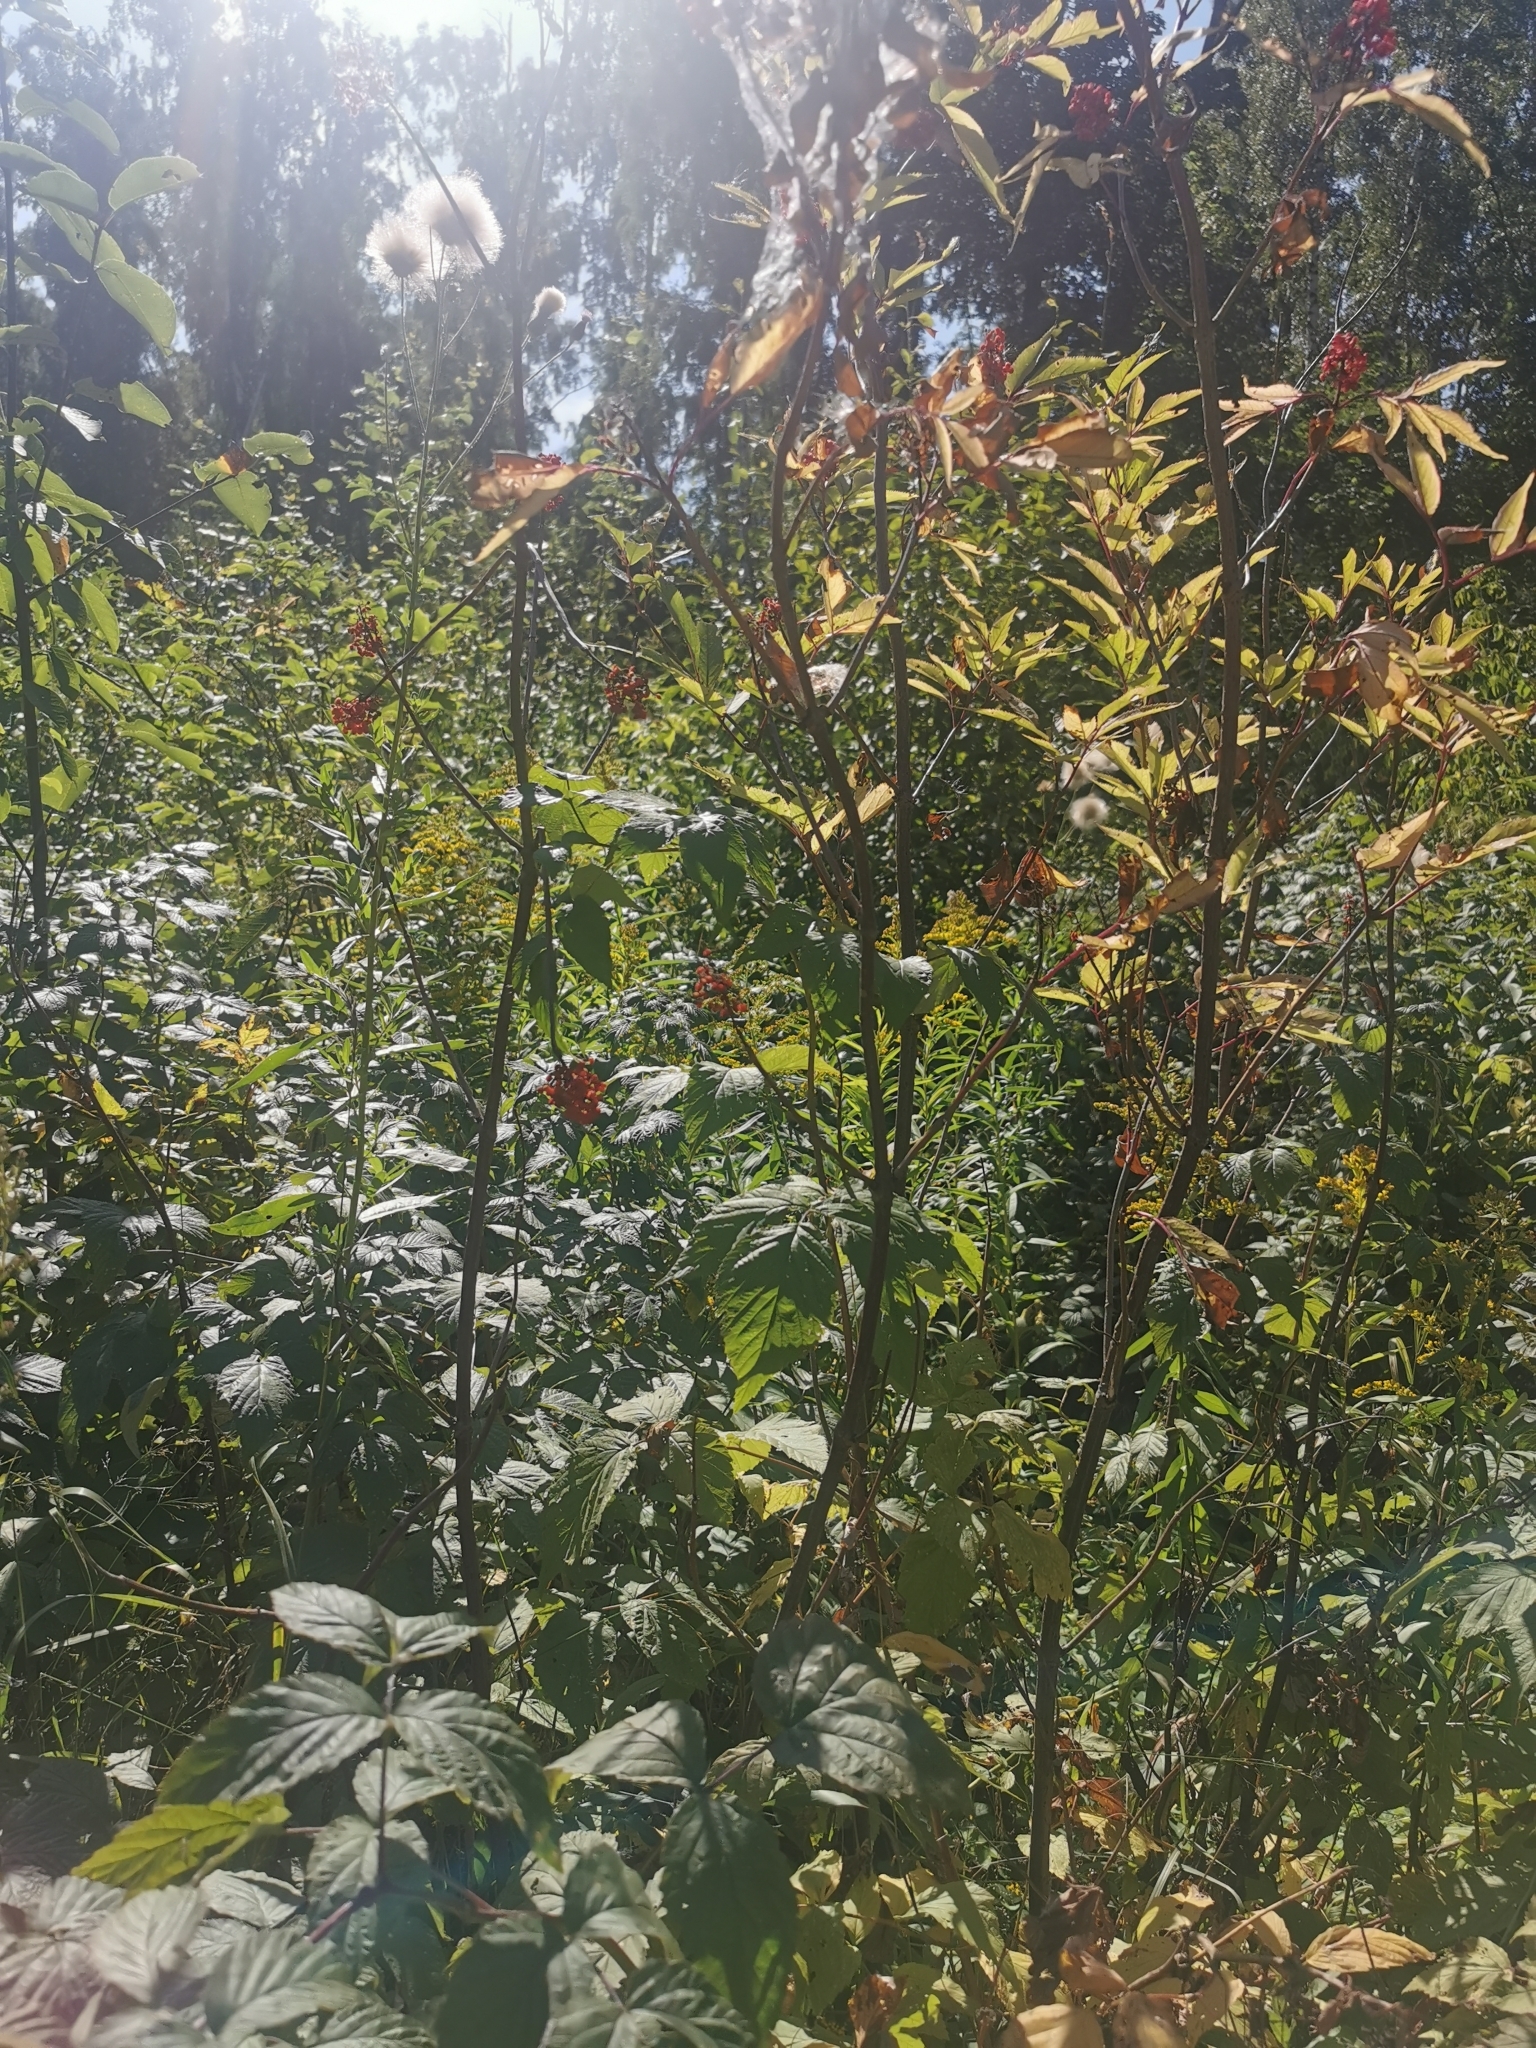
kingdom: Plantae
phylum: Tracheophyta
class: Magnoliopsida
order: Dipsacales
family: Viburnaceae
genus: Sambucus
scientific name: Sambucus racemosa
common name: Red-berried elder
